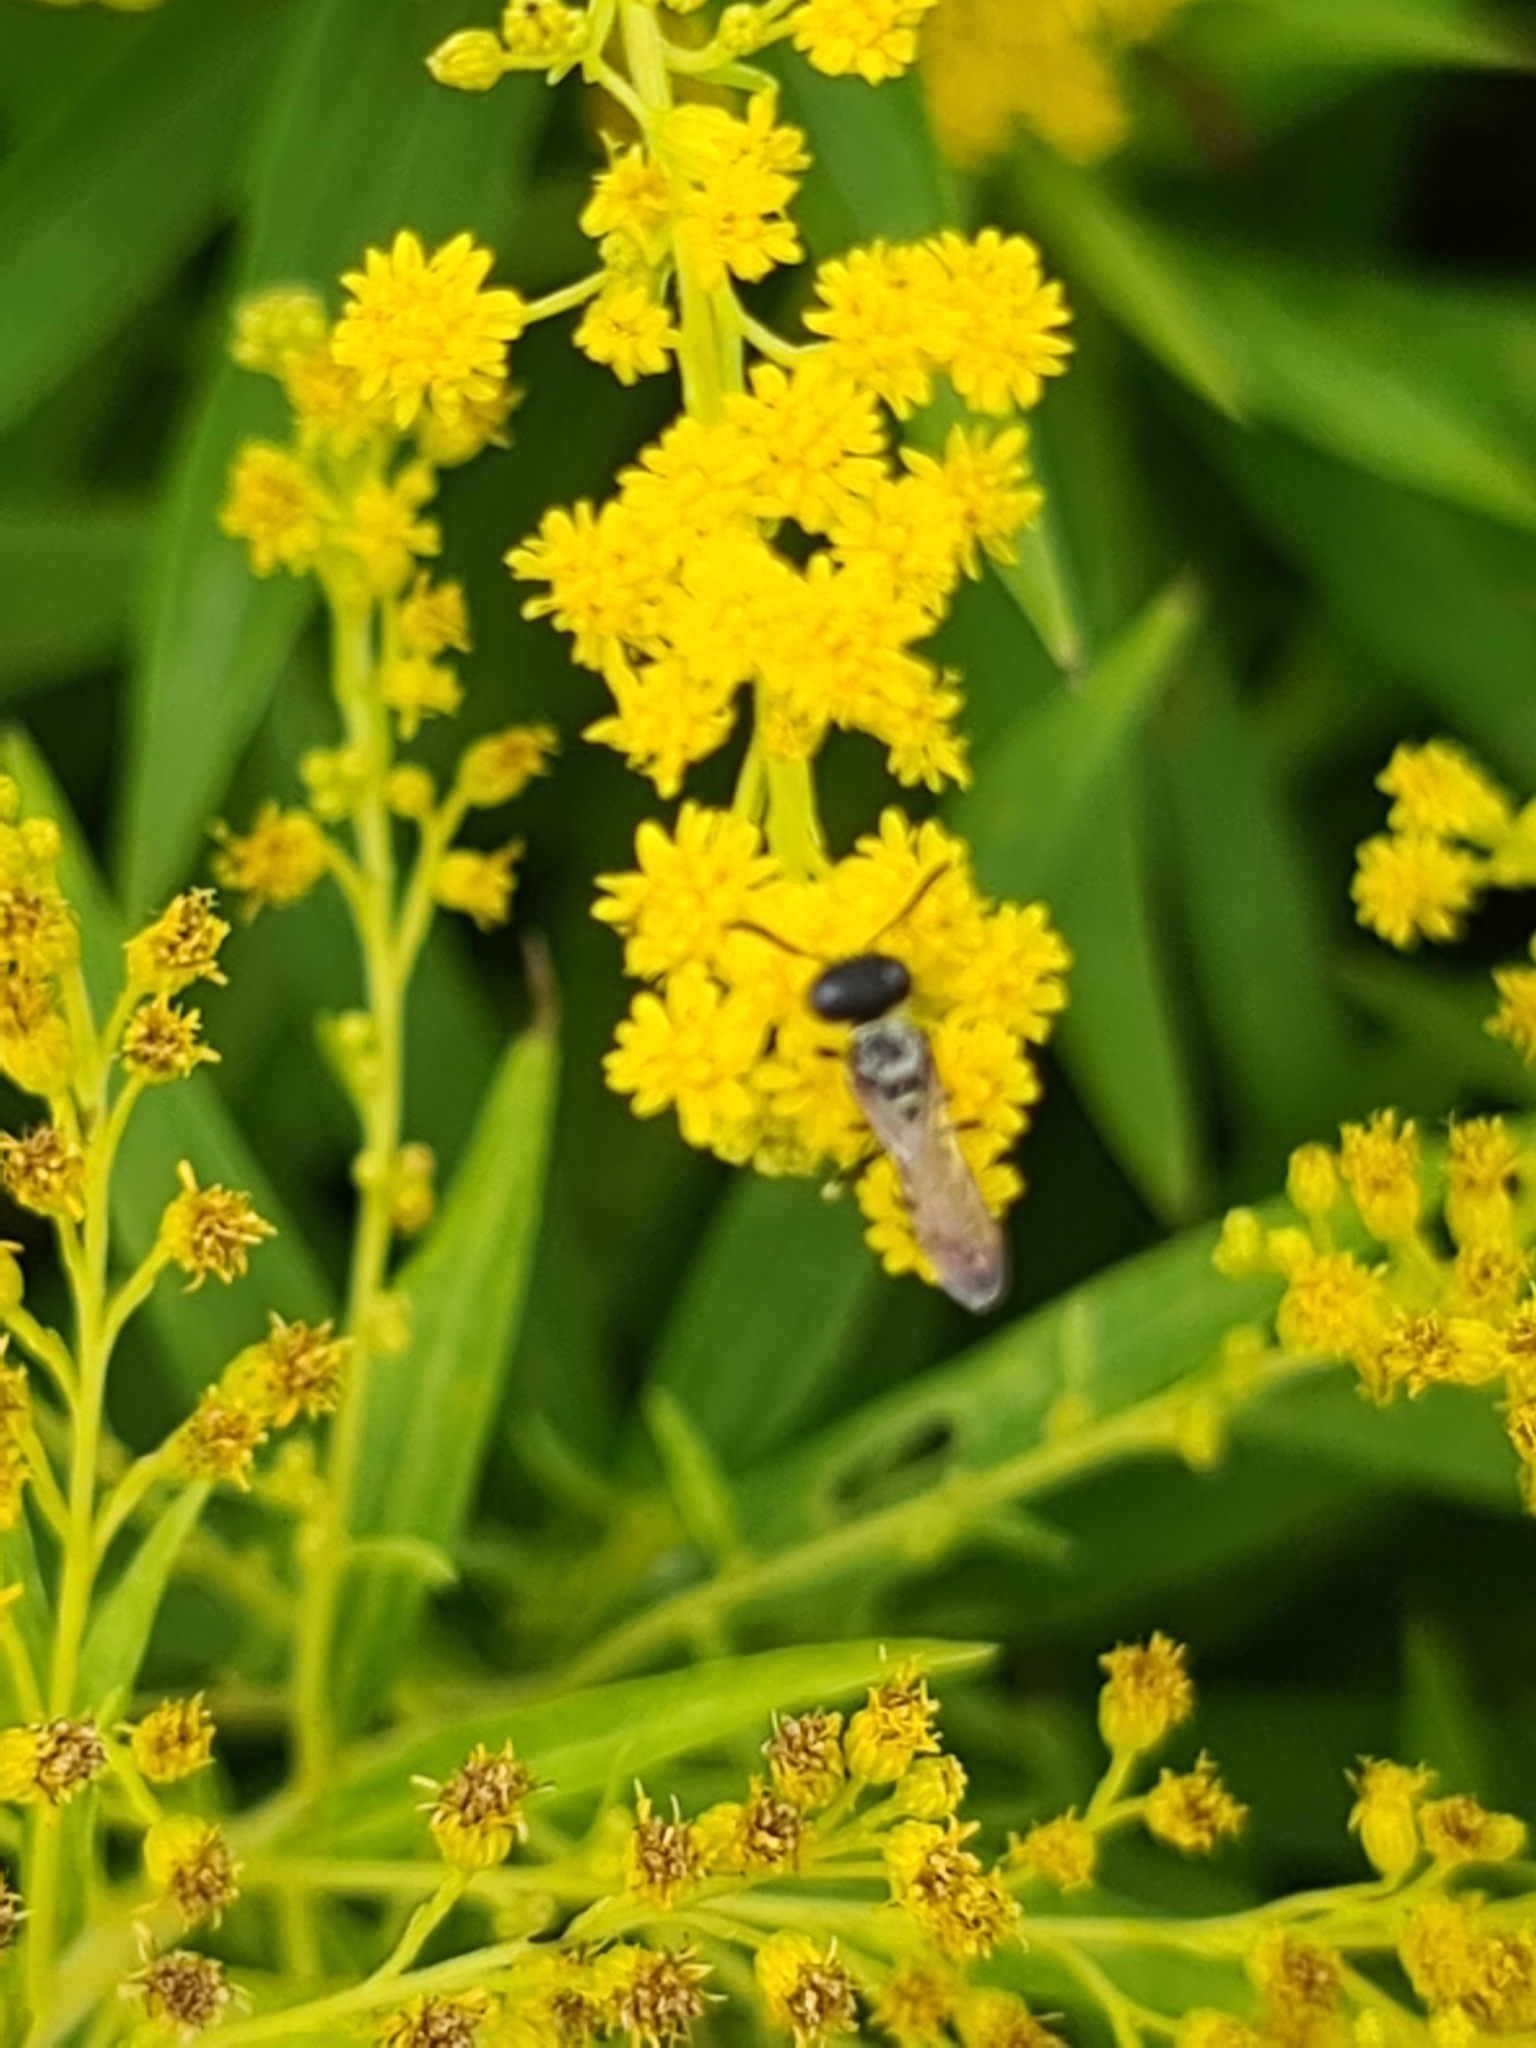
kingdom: Animalia
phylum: Arthropoda
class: Insecta
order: Hymenoptera
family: Crabronidae
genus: Philanthus
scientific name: Philanthus triangulum
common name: Bee wolf
